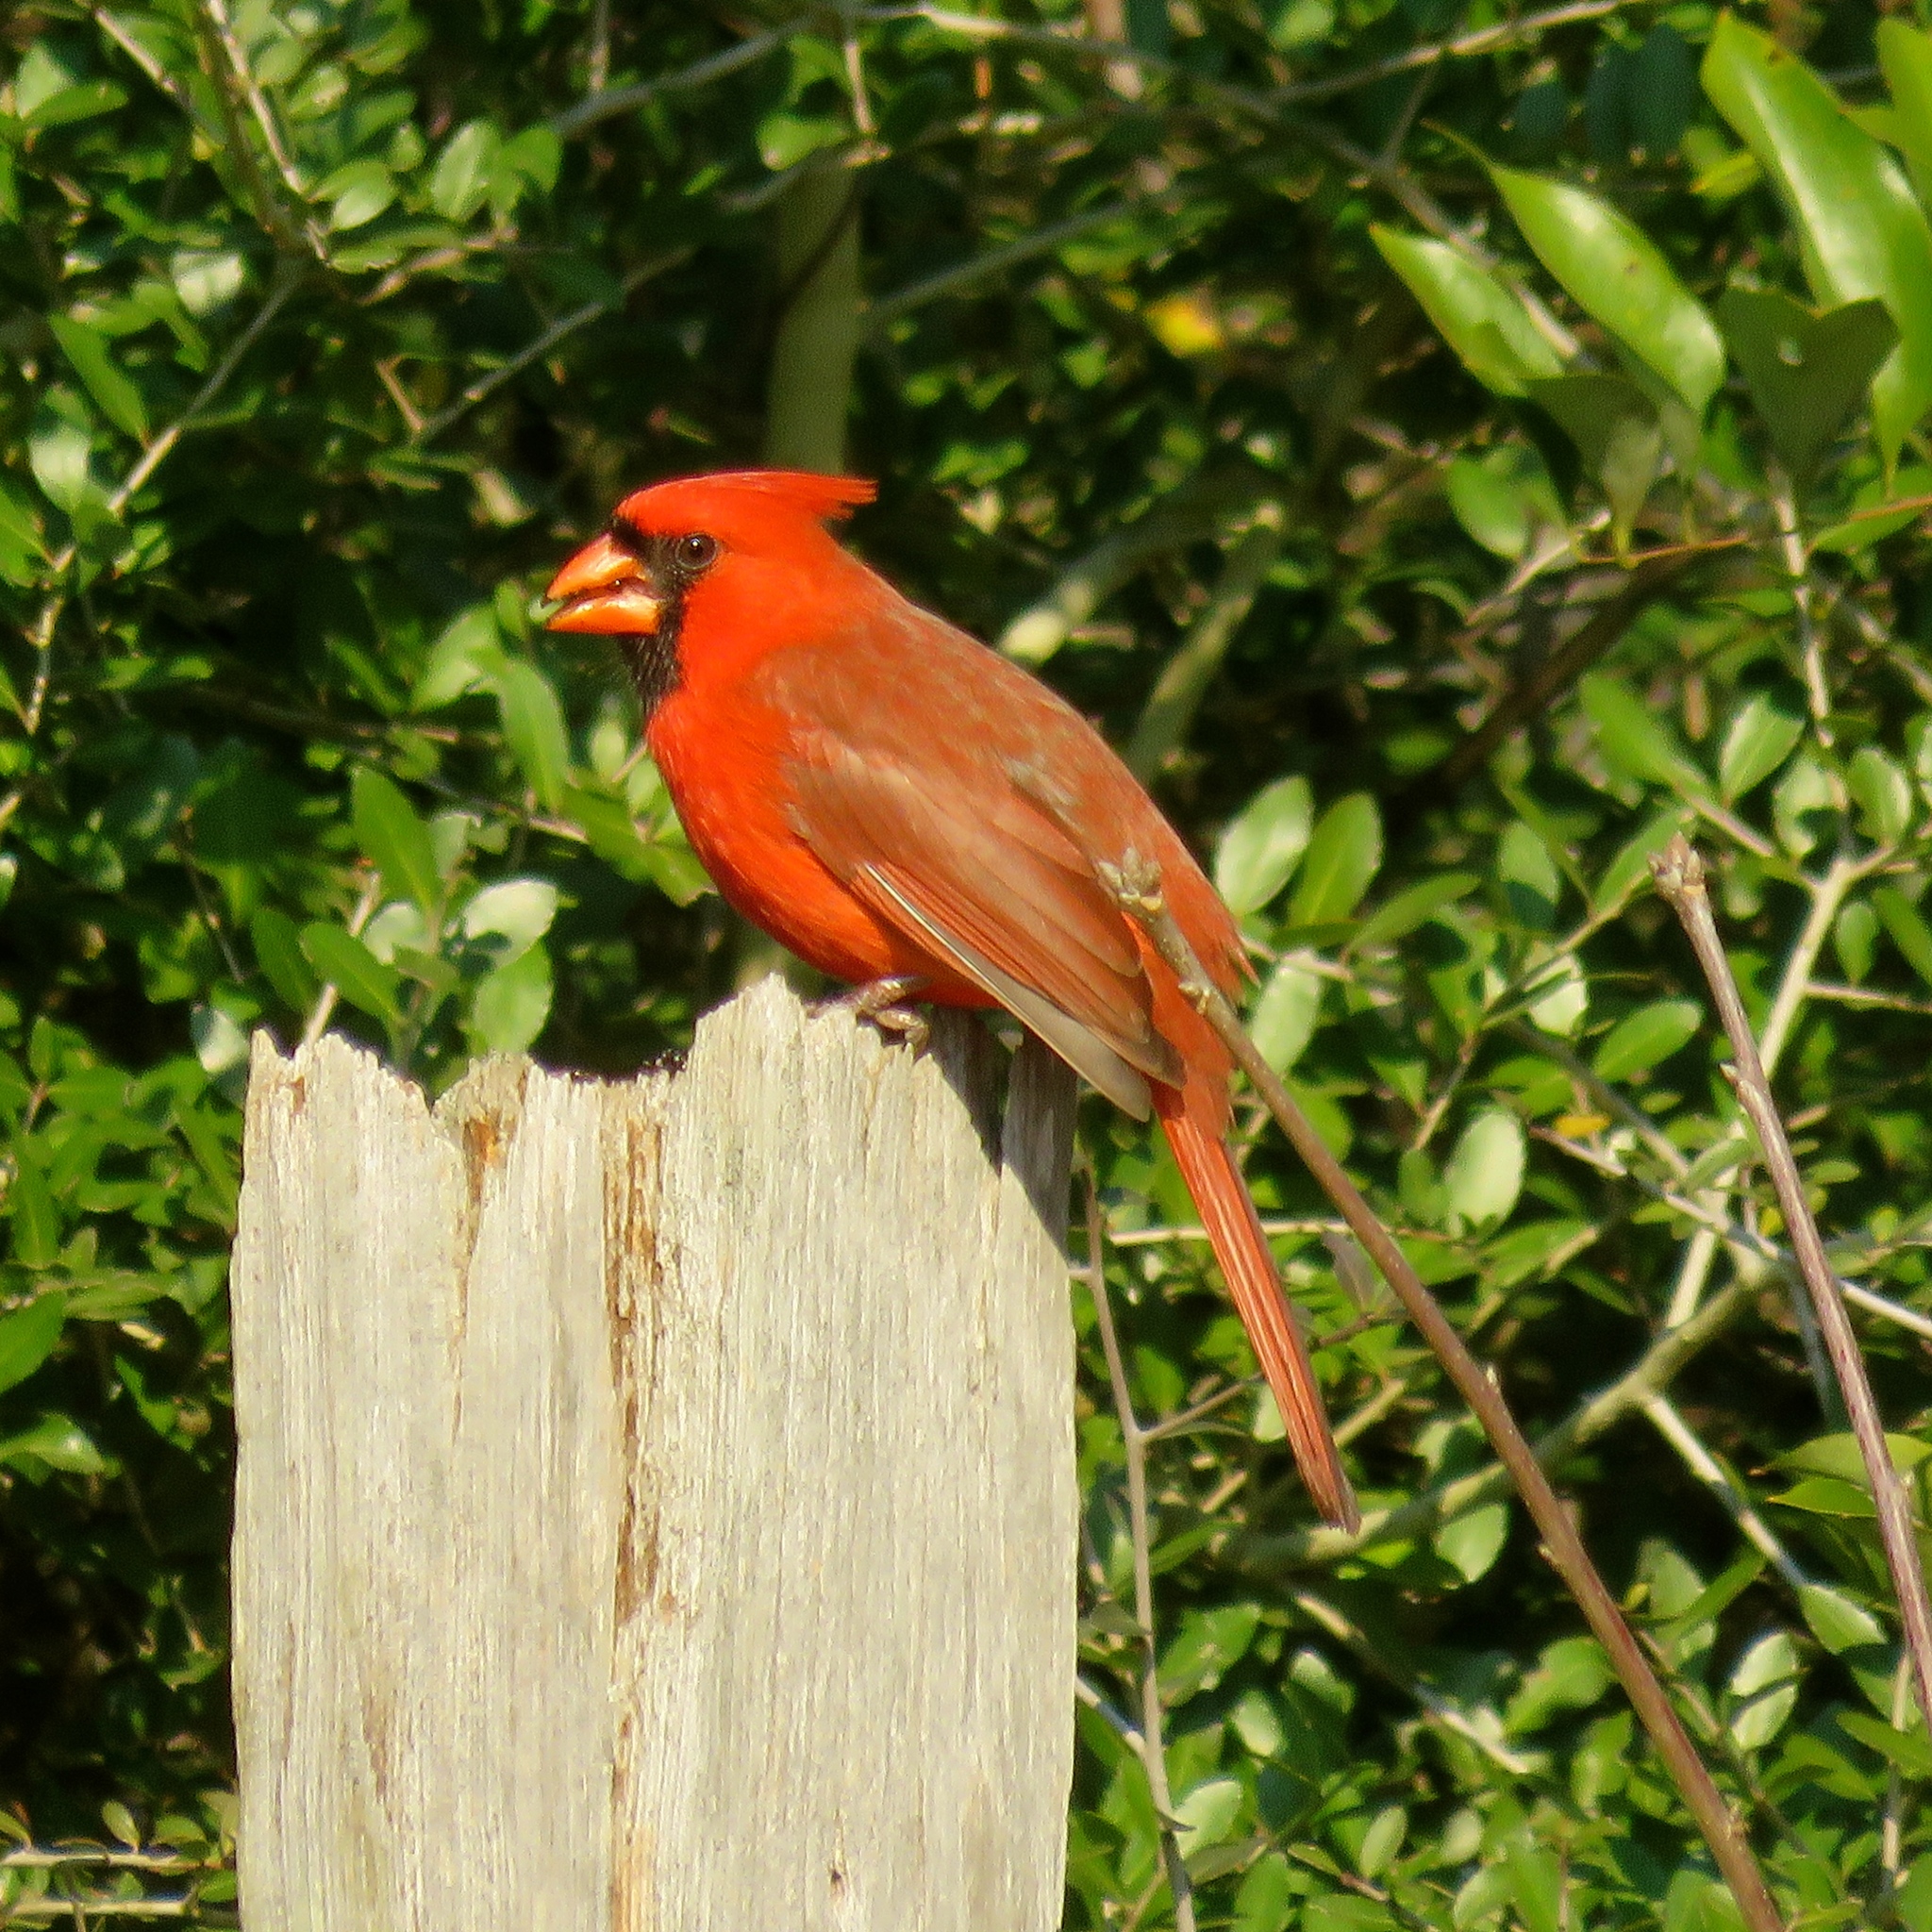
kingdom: Animalia
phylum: Chordata
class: Aves
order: Passeriformes
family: Cardinalidae
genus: Cardinalis
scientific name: Cardinalis cardinalis
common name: Northern cardinal
